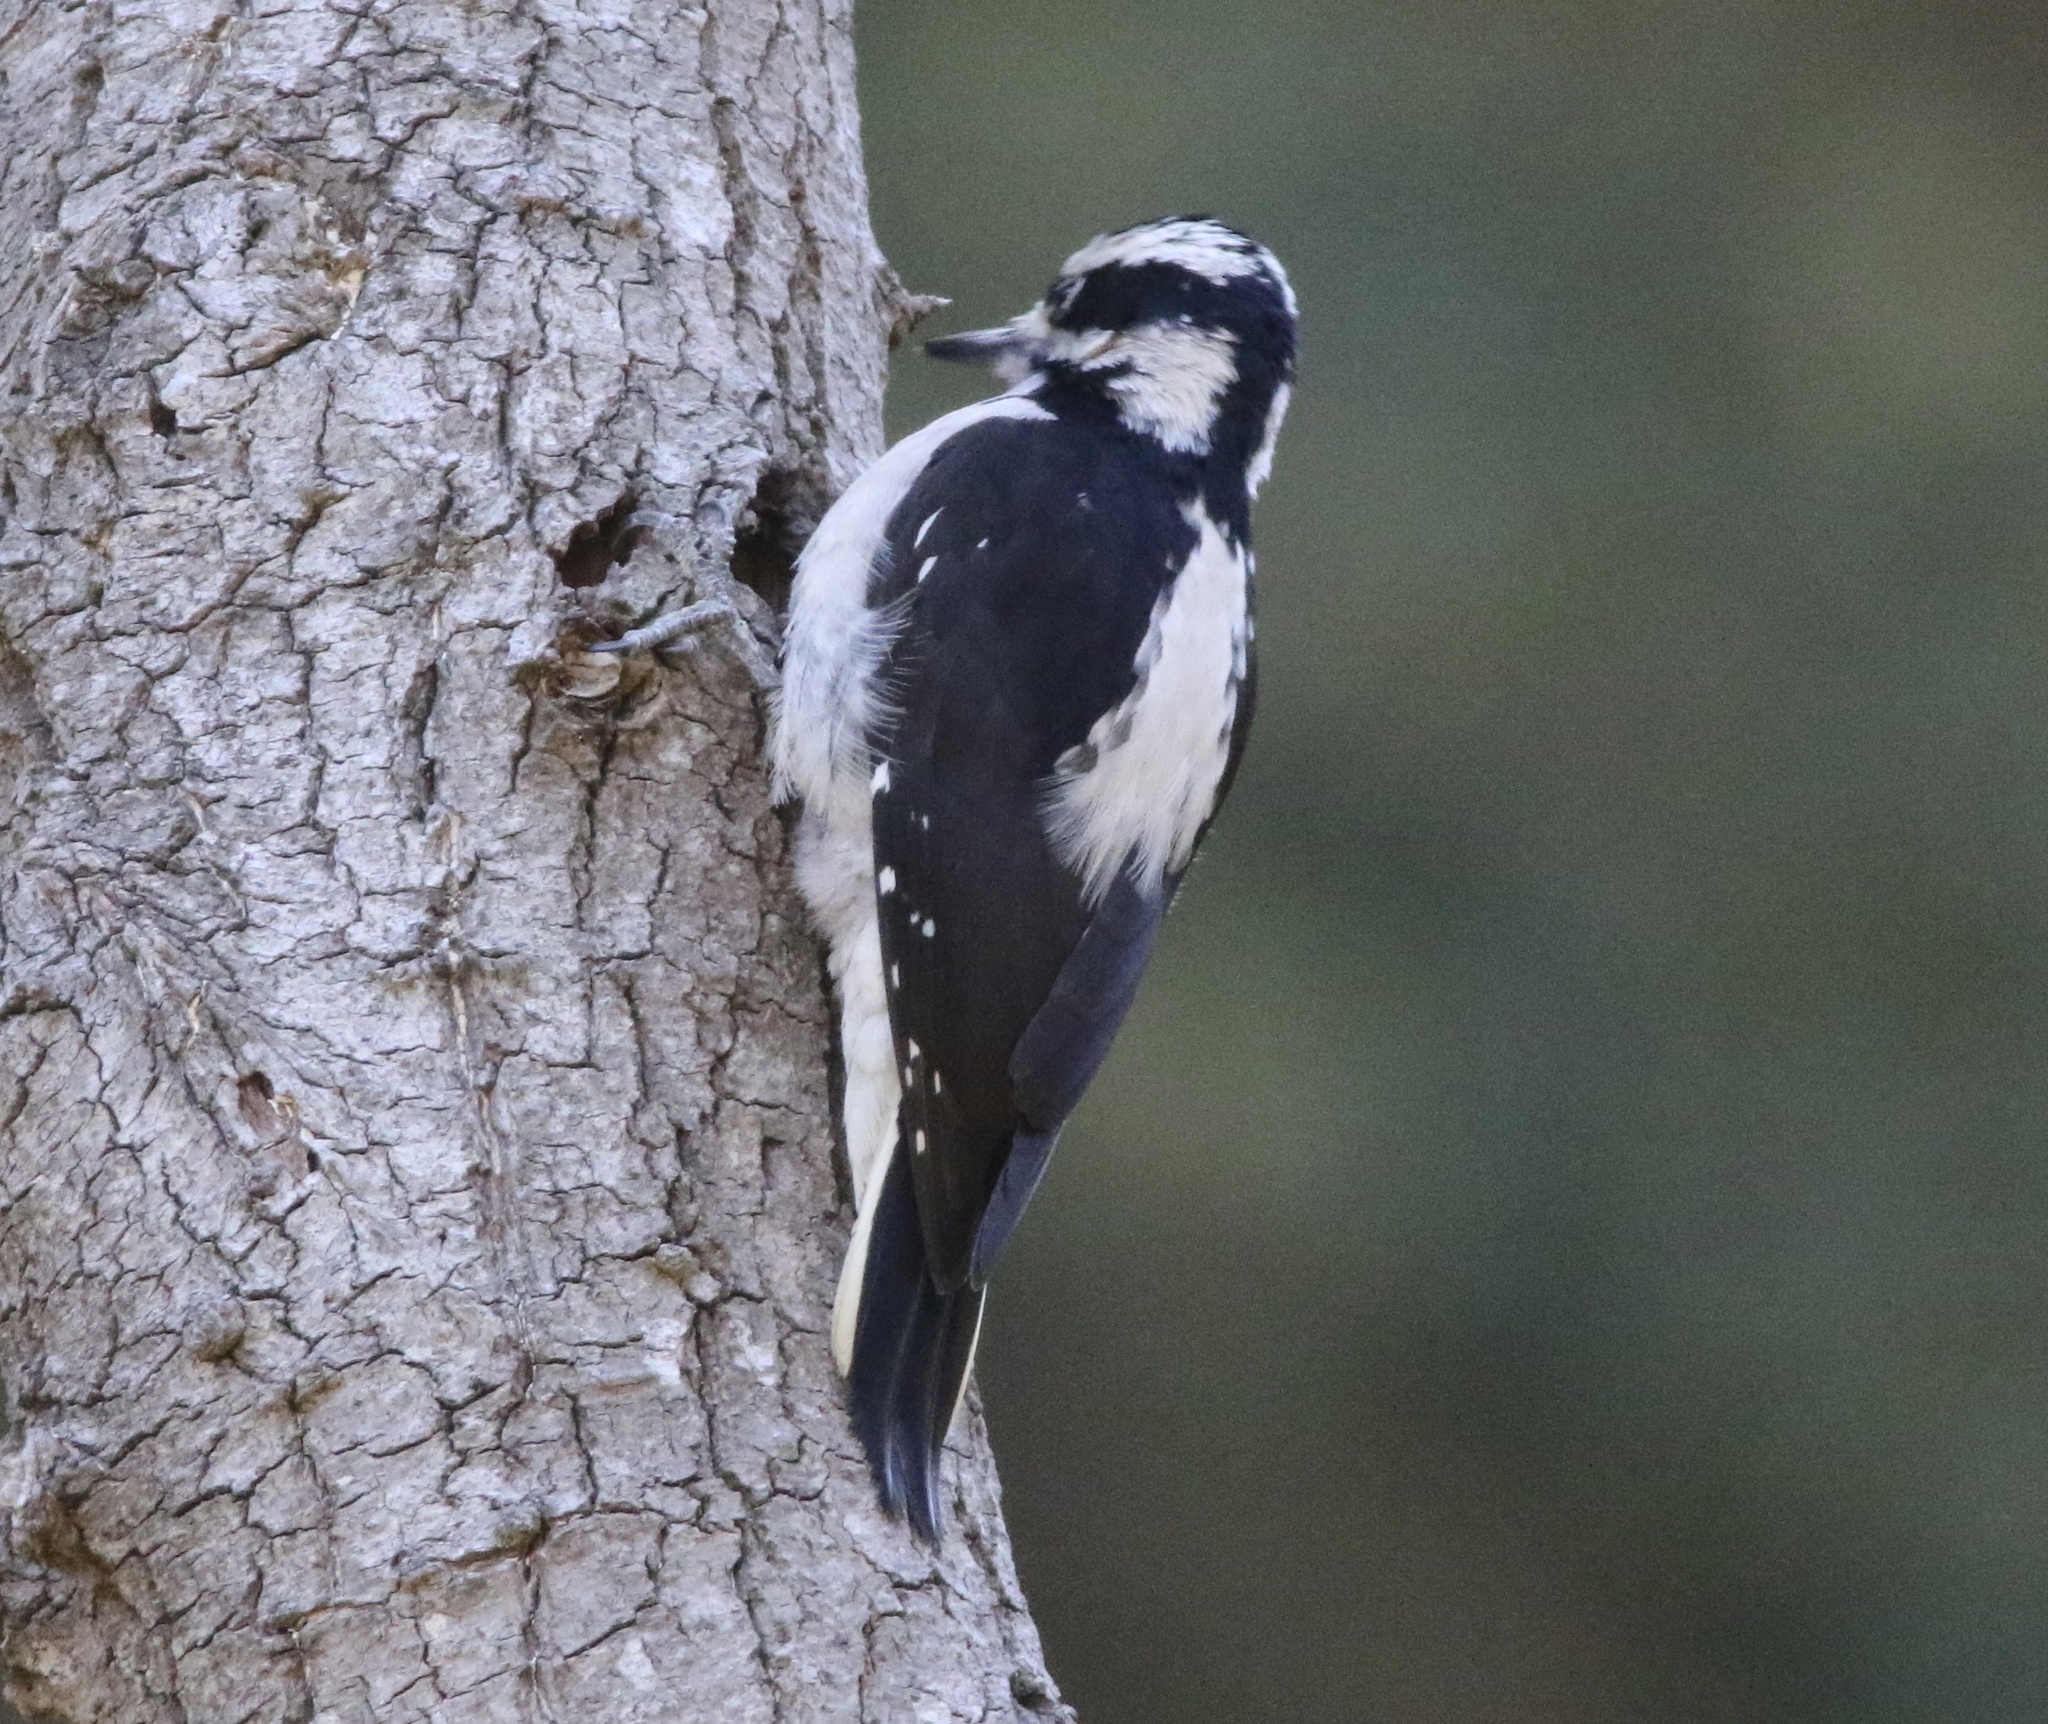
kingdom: Animalia
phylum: Chordata
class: Aves
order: Piciformes
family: Picidae
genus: Leuconotopicus
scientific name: Leuconotopicus villosus
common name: Hairy woodpecker
